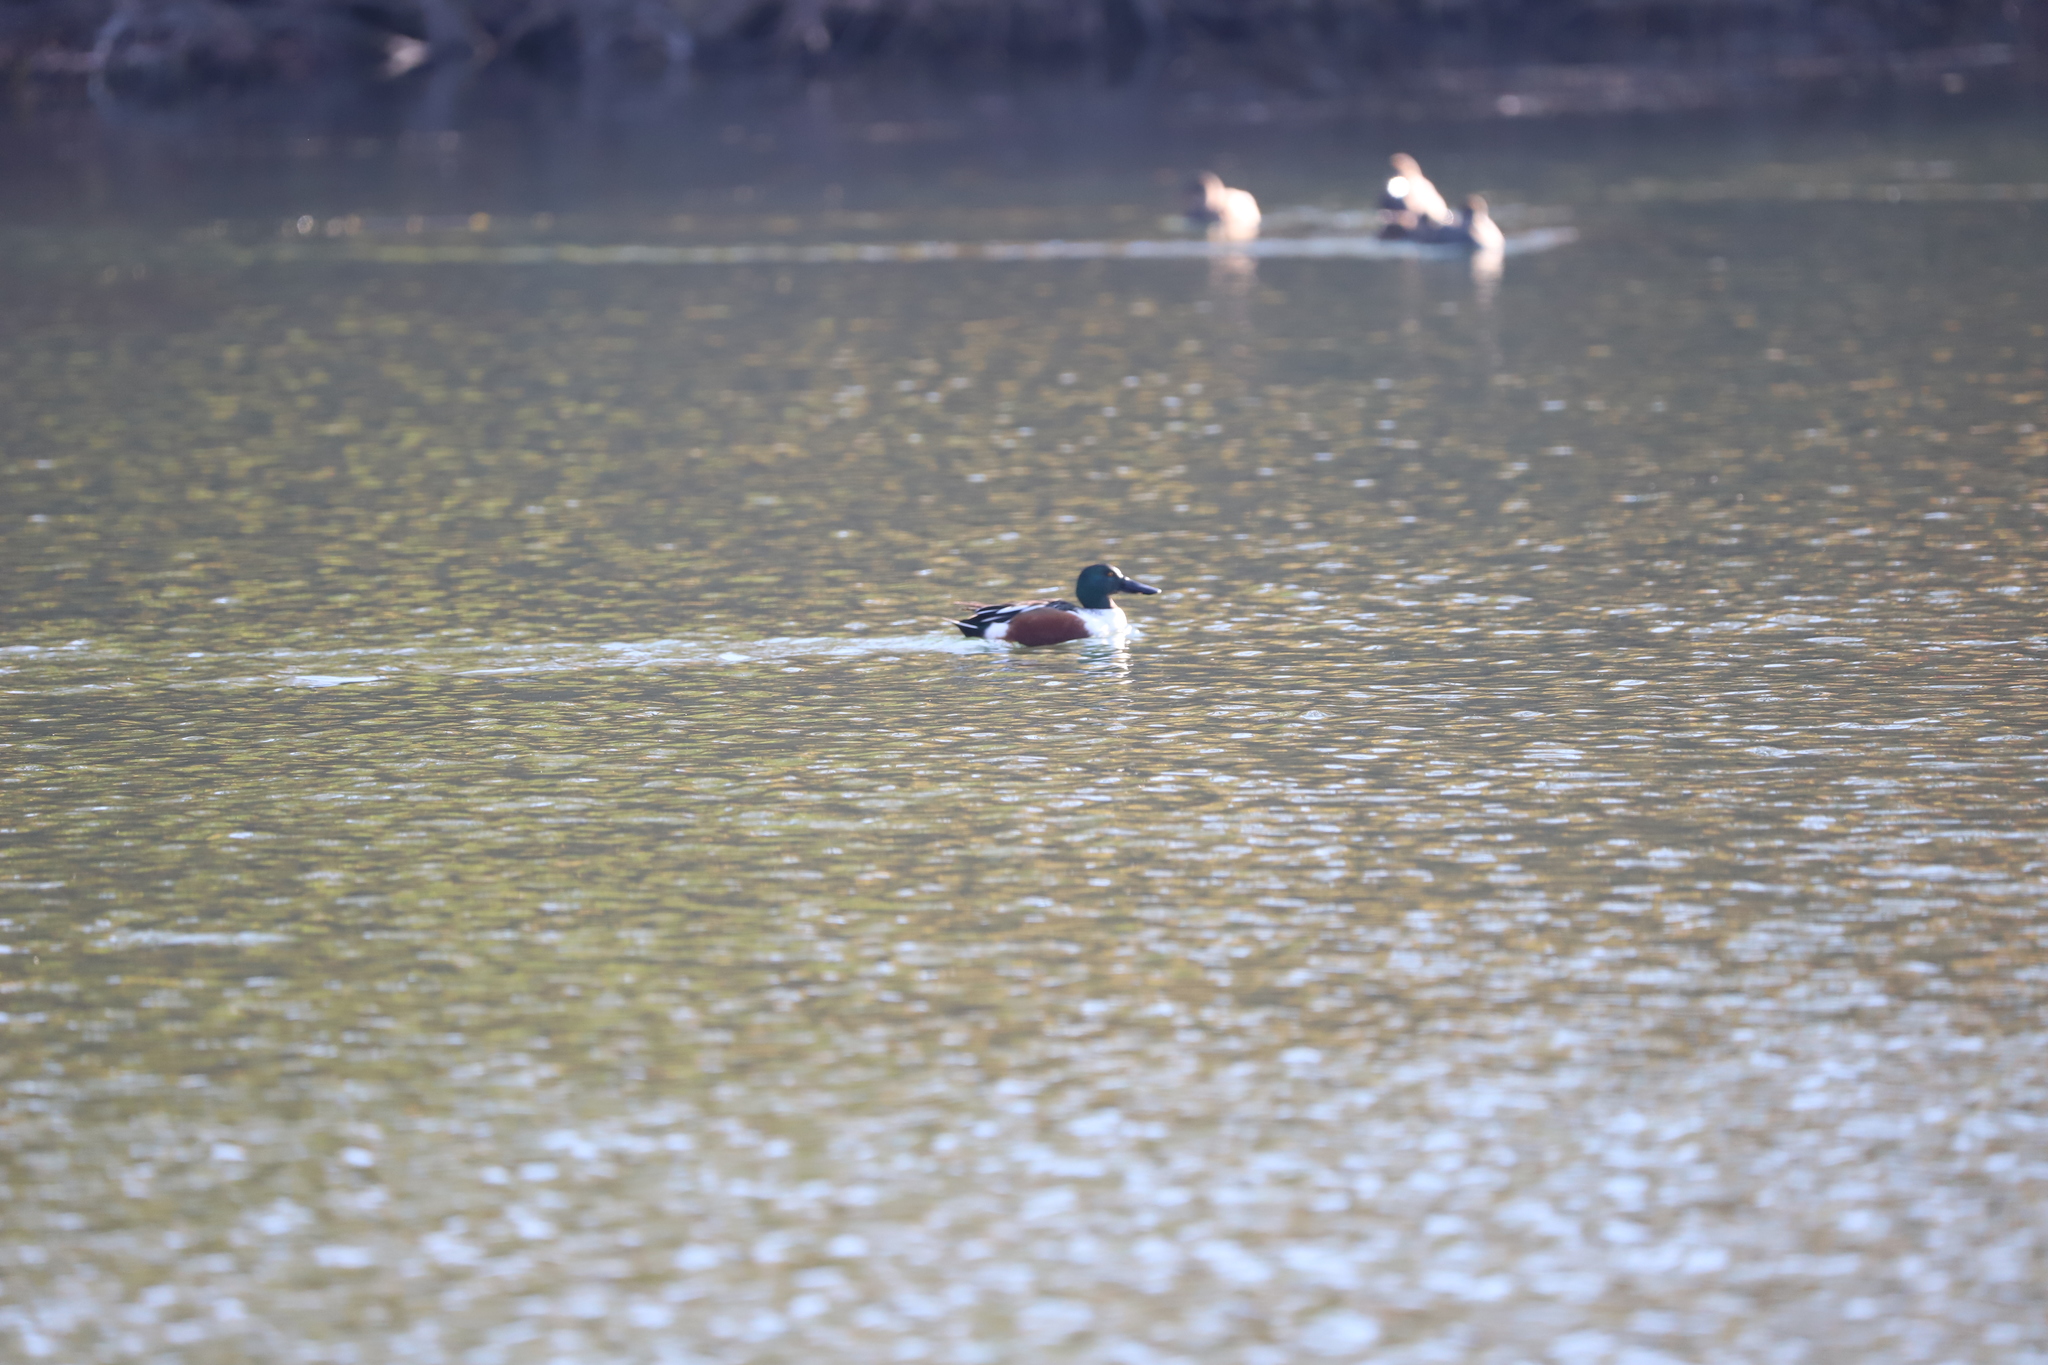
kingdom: Animalia
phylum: Chordata
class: Aves
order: Anseriformes
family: Anatidae
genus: Spatula
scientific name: Spatula clypeata
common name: Northern shoveler
